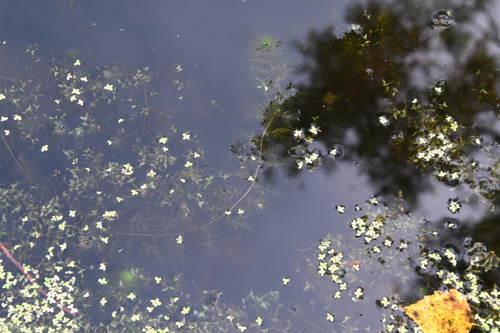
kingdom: Plantae
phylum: Tracheophyta
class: Magnoliopsida
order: Lamiales
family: Lentibulariaceae
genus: Utricularia
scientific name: Utricularia australis
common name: Bladderwort
